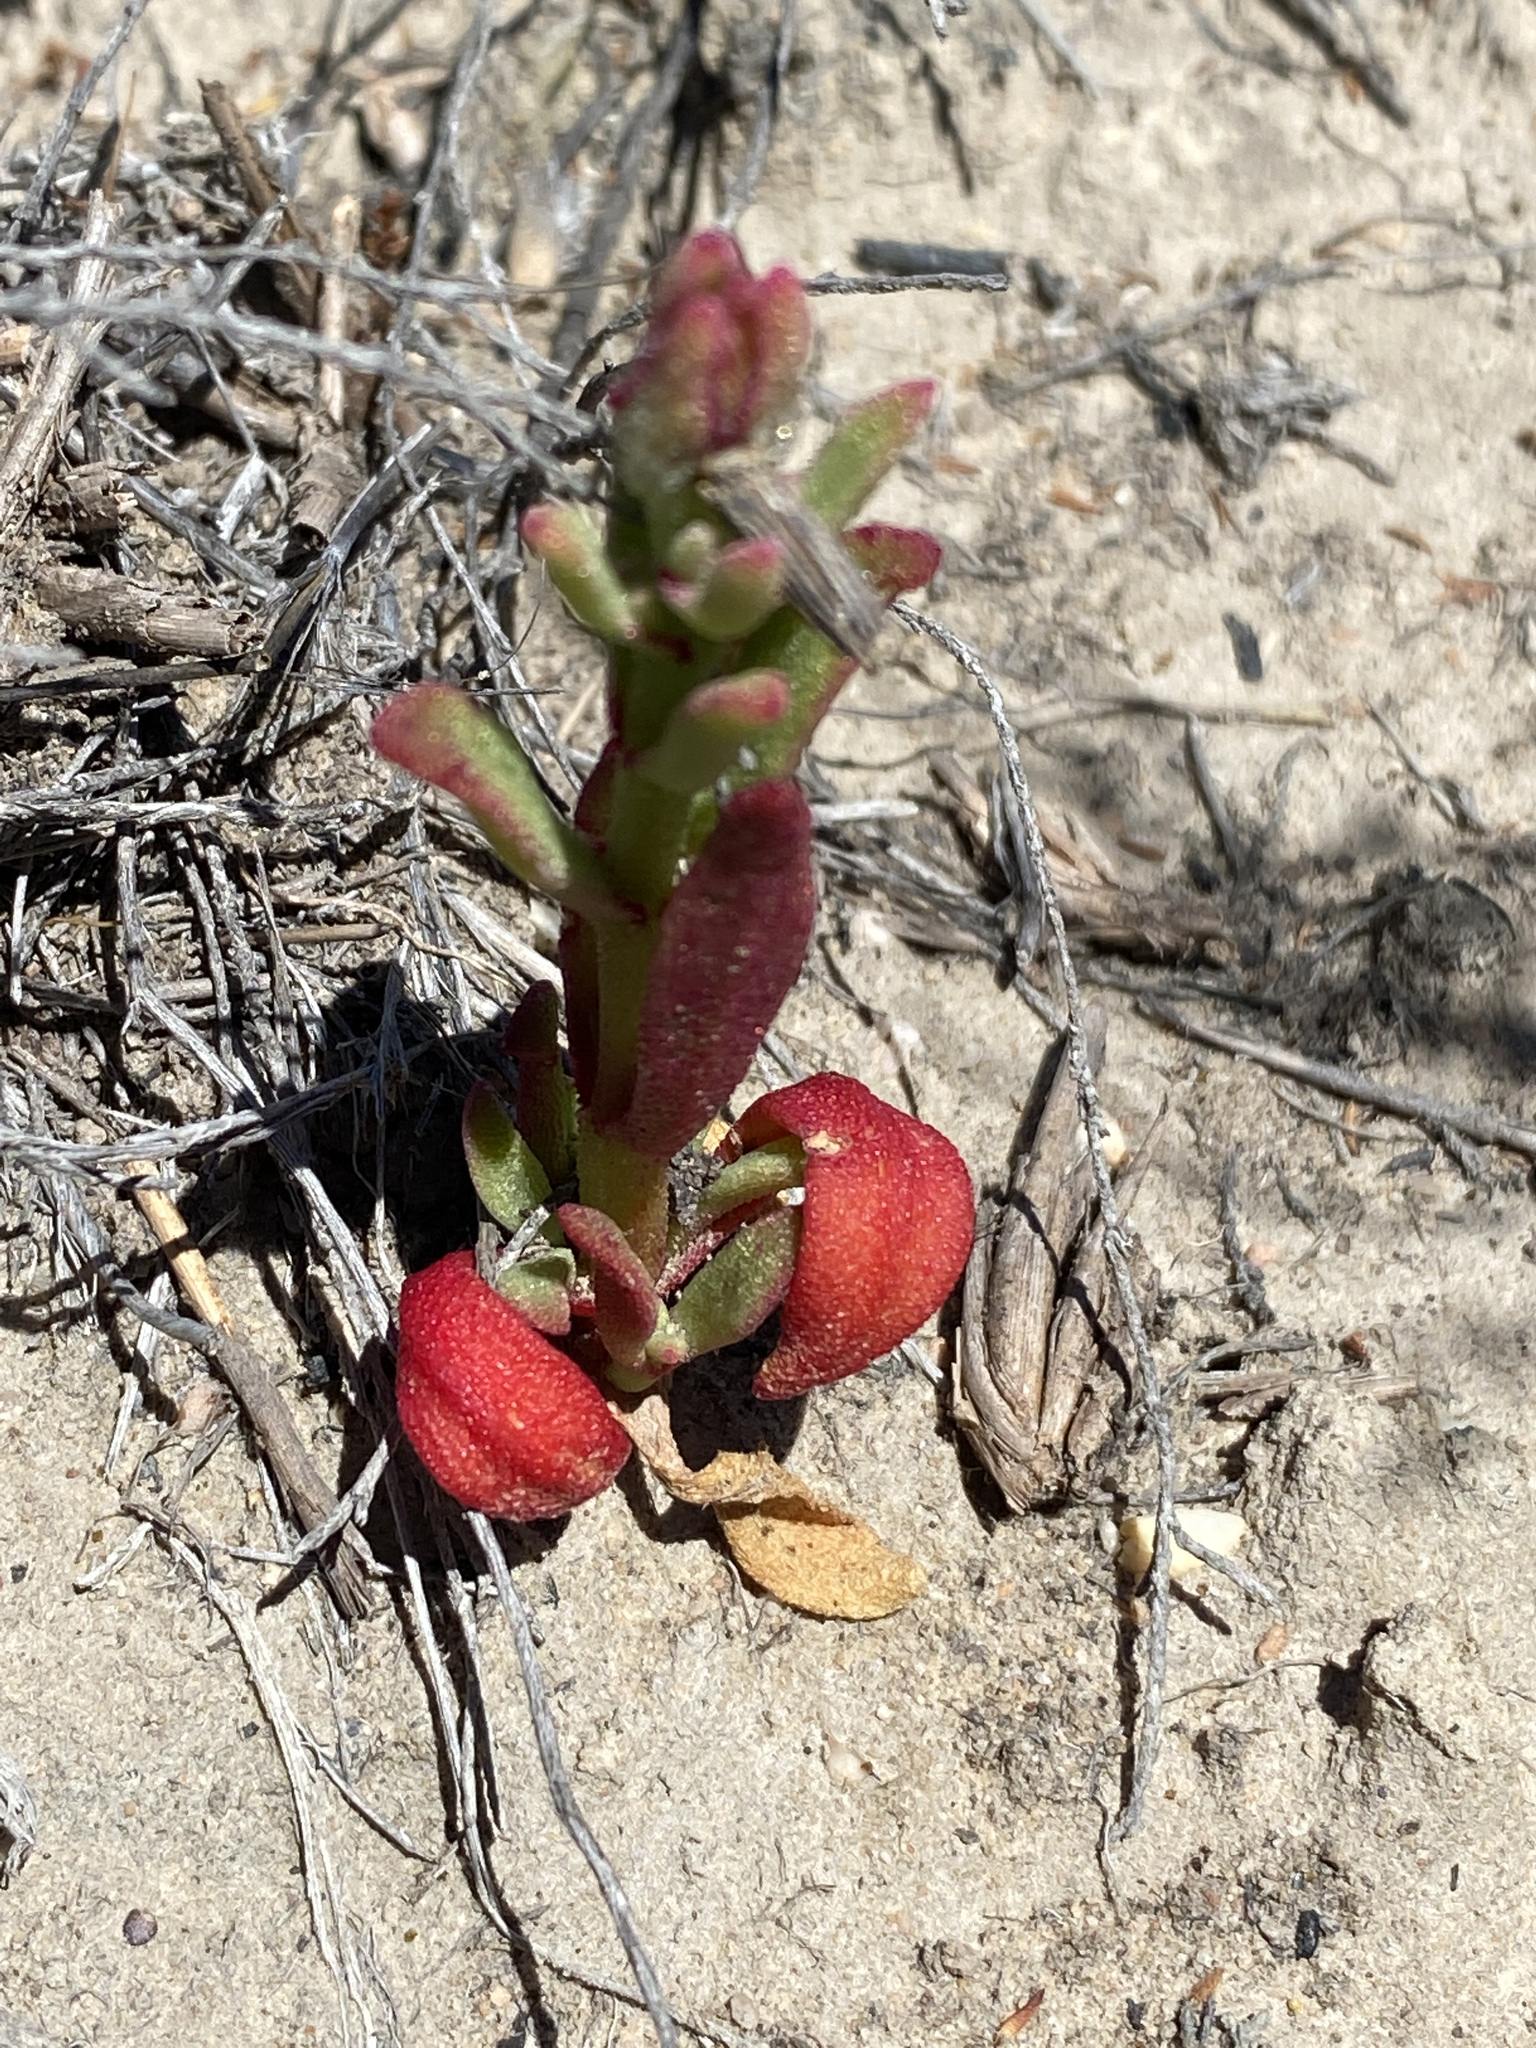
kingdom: Plantae
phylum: Tracheophyta
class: Magnoliopsida
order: Caryophyllales
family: Aizoaceae
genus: Cleretum
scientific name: Cleretum papulosum
